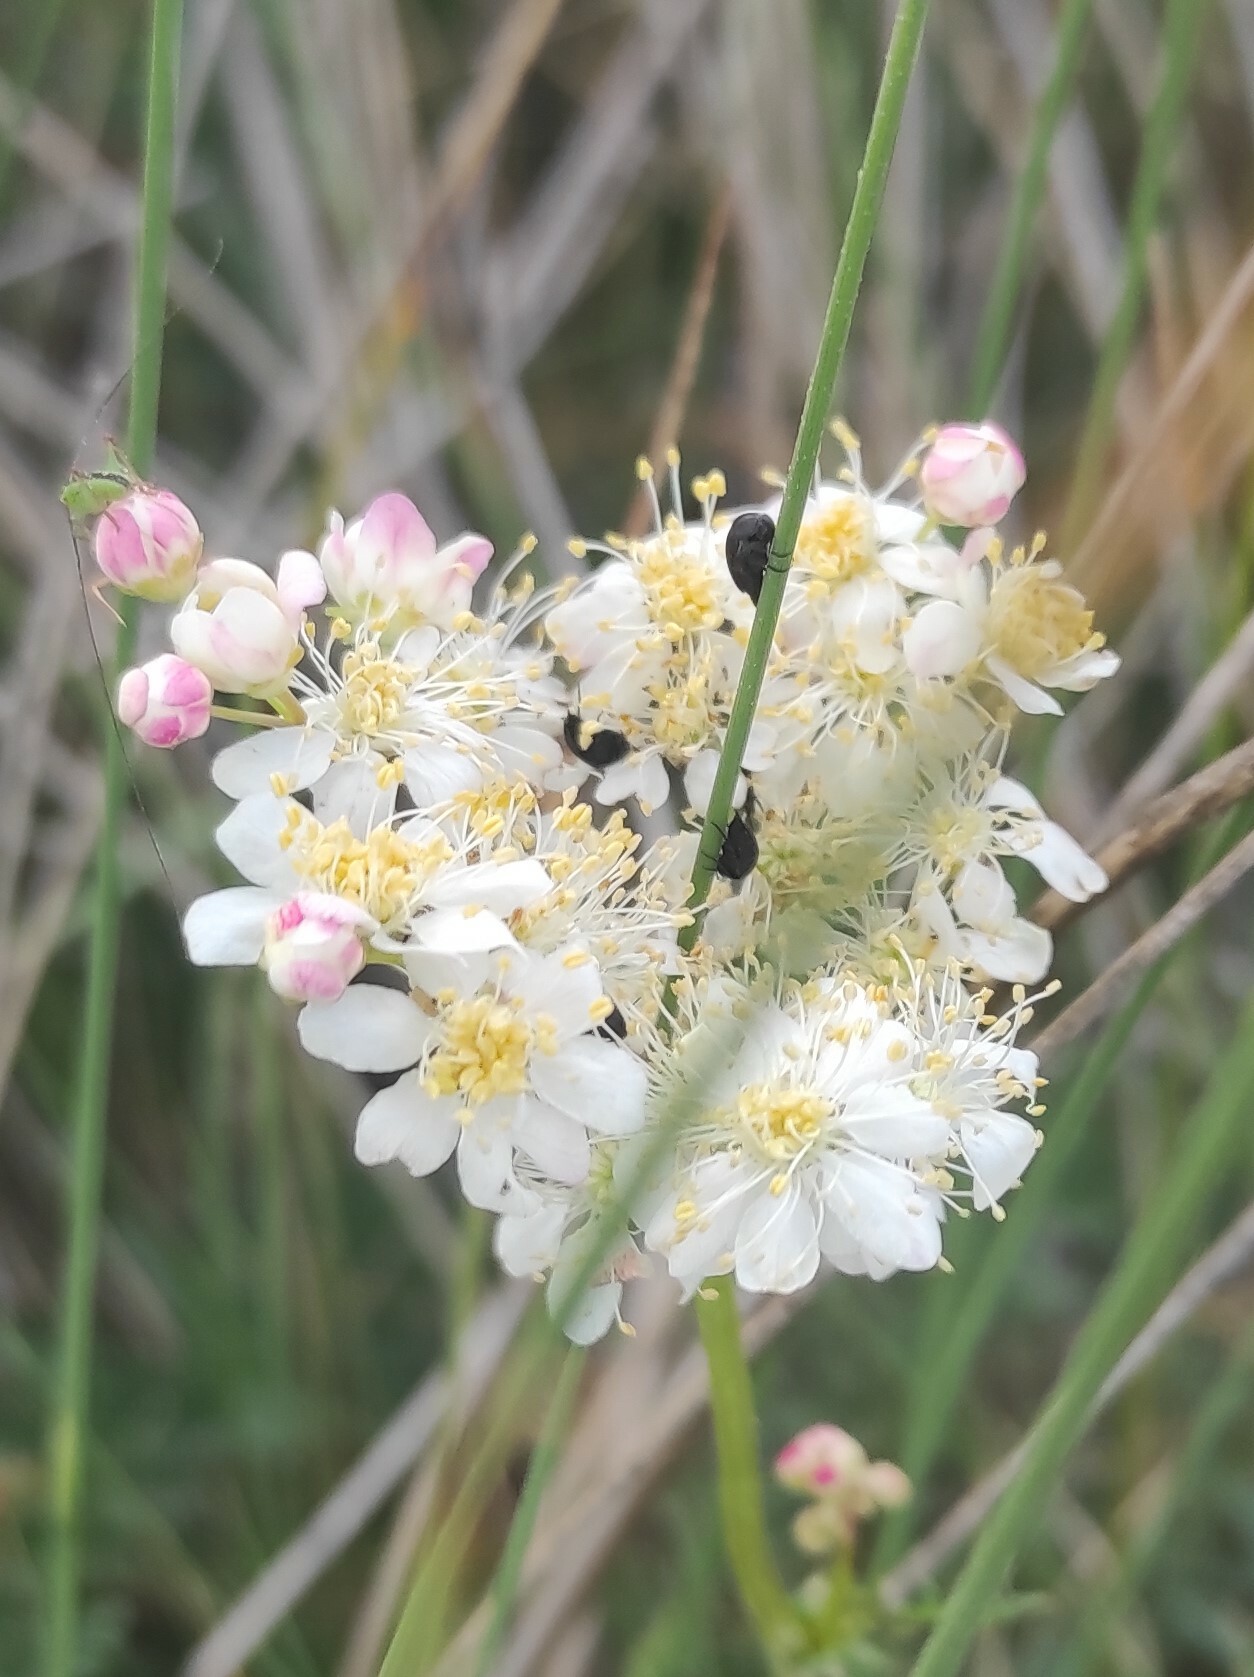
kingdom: Plantae
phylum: Tracheophyta
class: Magnoliopsida
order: Rosales
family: Rosaceae
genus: Filipendula
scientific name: Filipendula vulgaris
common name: Dropwort
